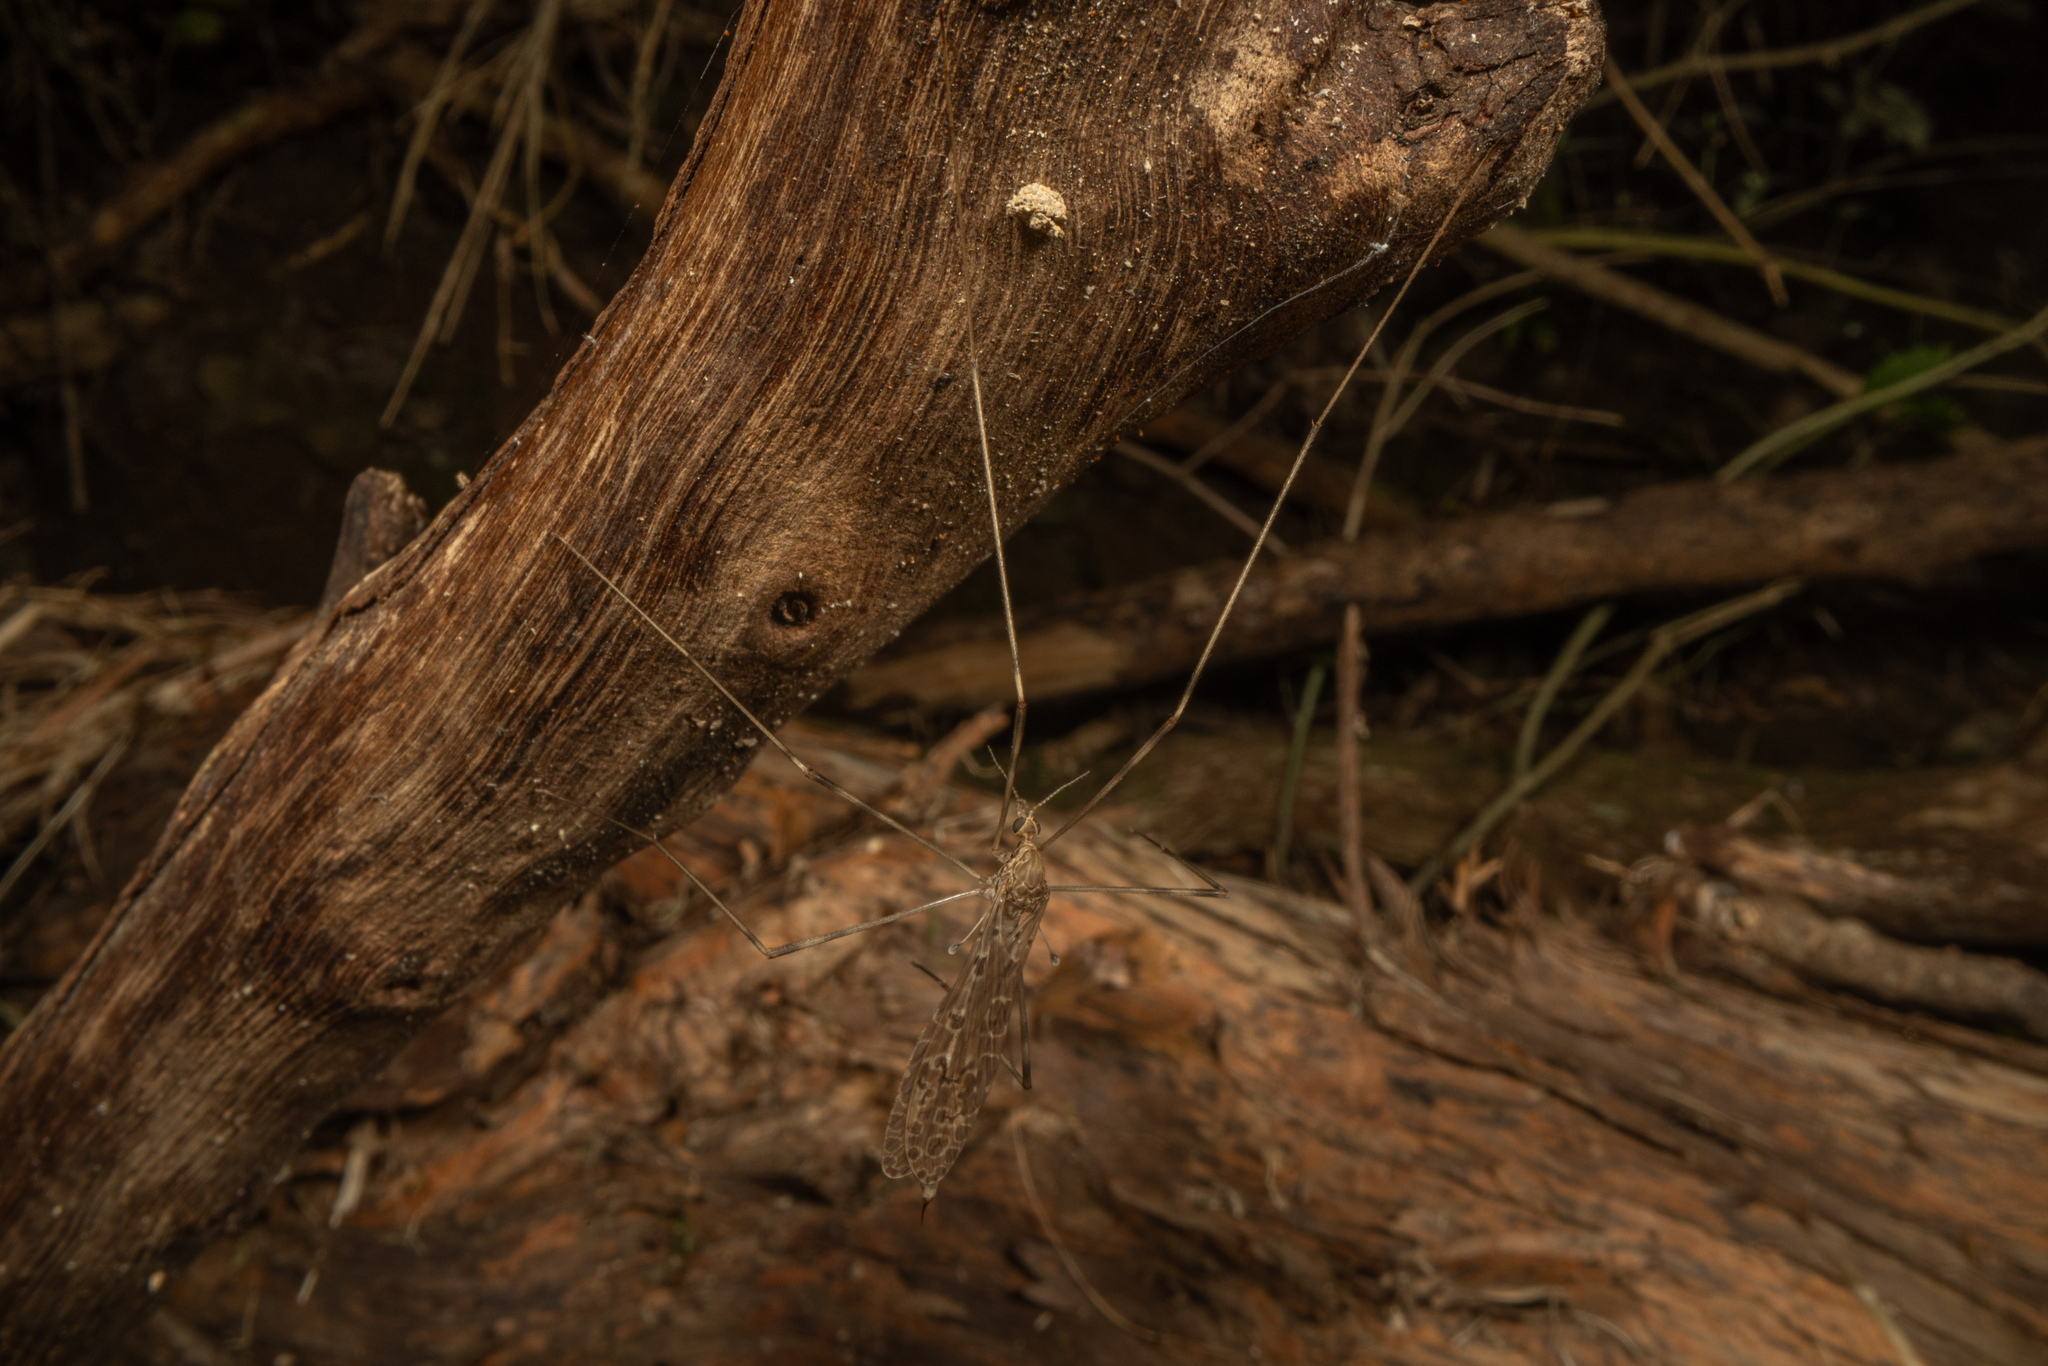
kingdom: Animalia
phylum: Arthropoda
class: Insecta
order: Diptera
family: Limoniidae
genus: Austrolimnophila
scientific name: Austrolimnophila crassipes
